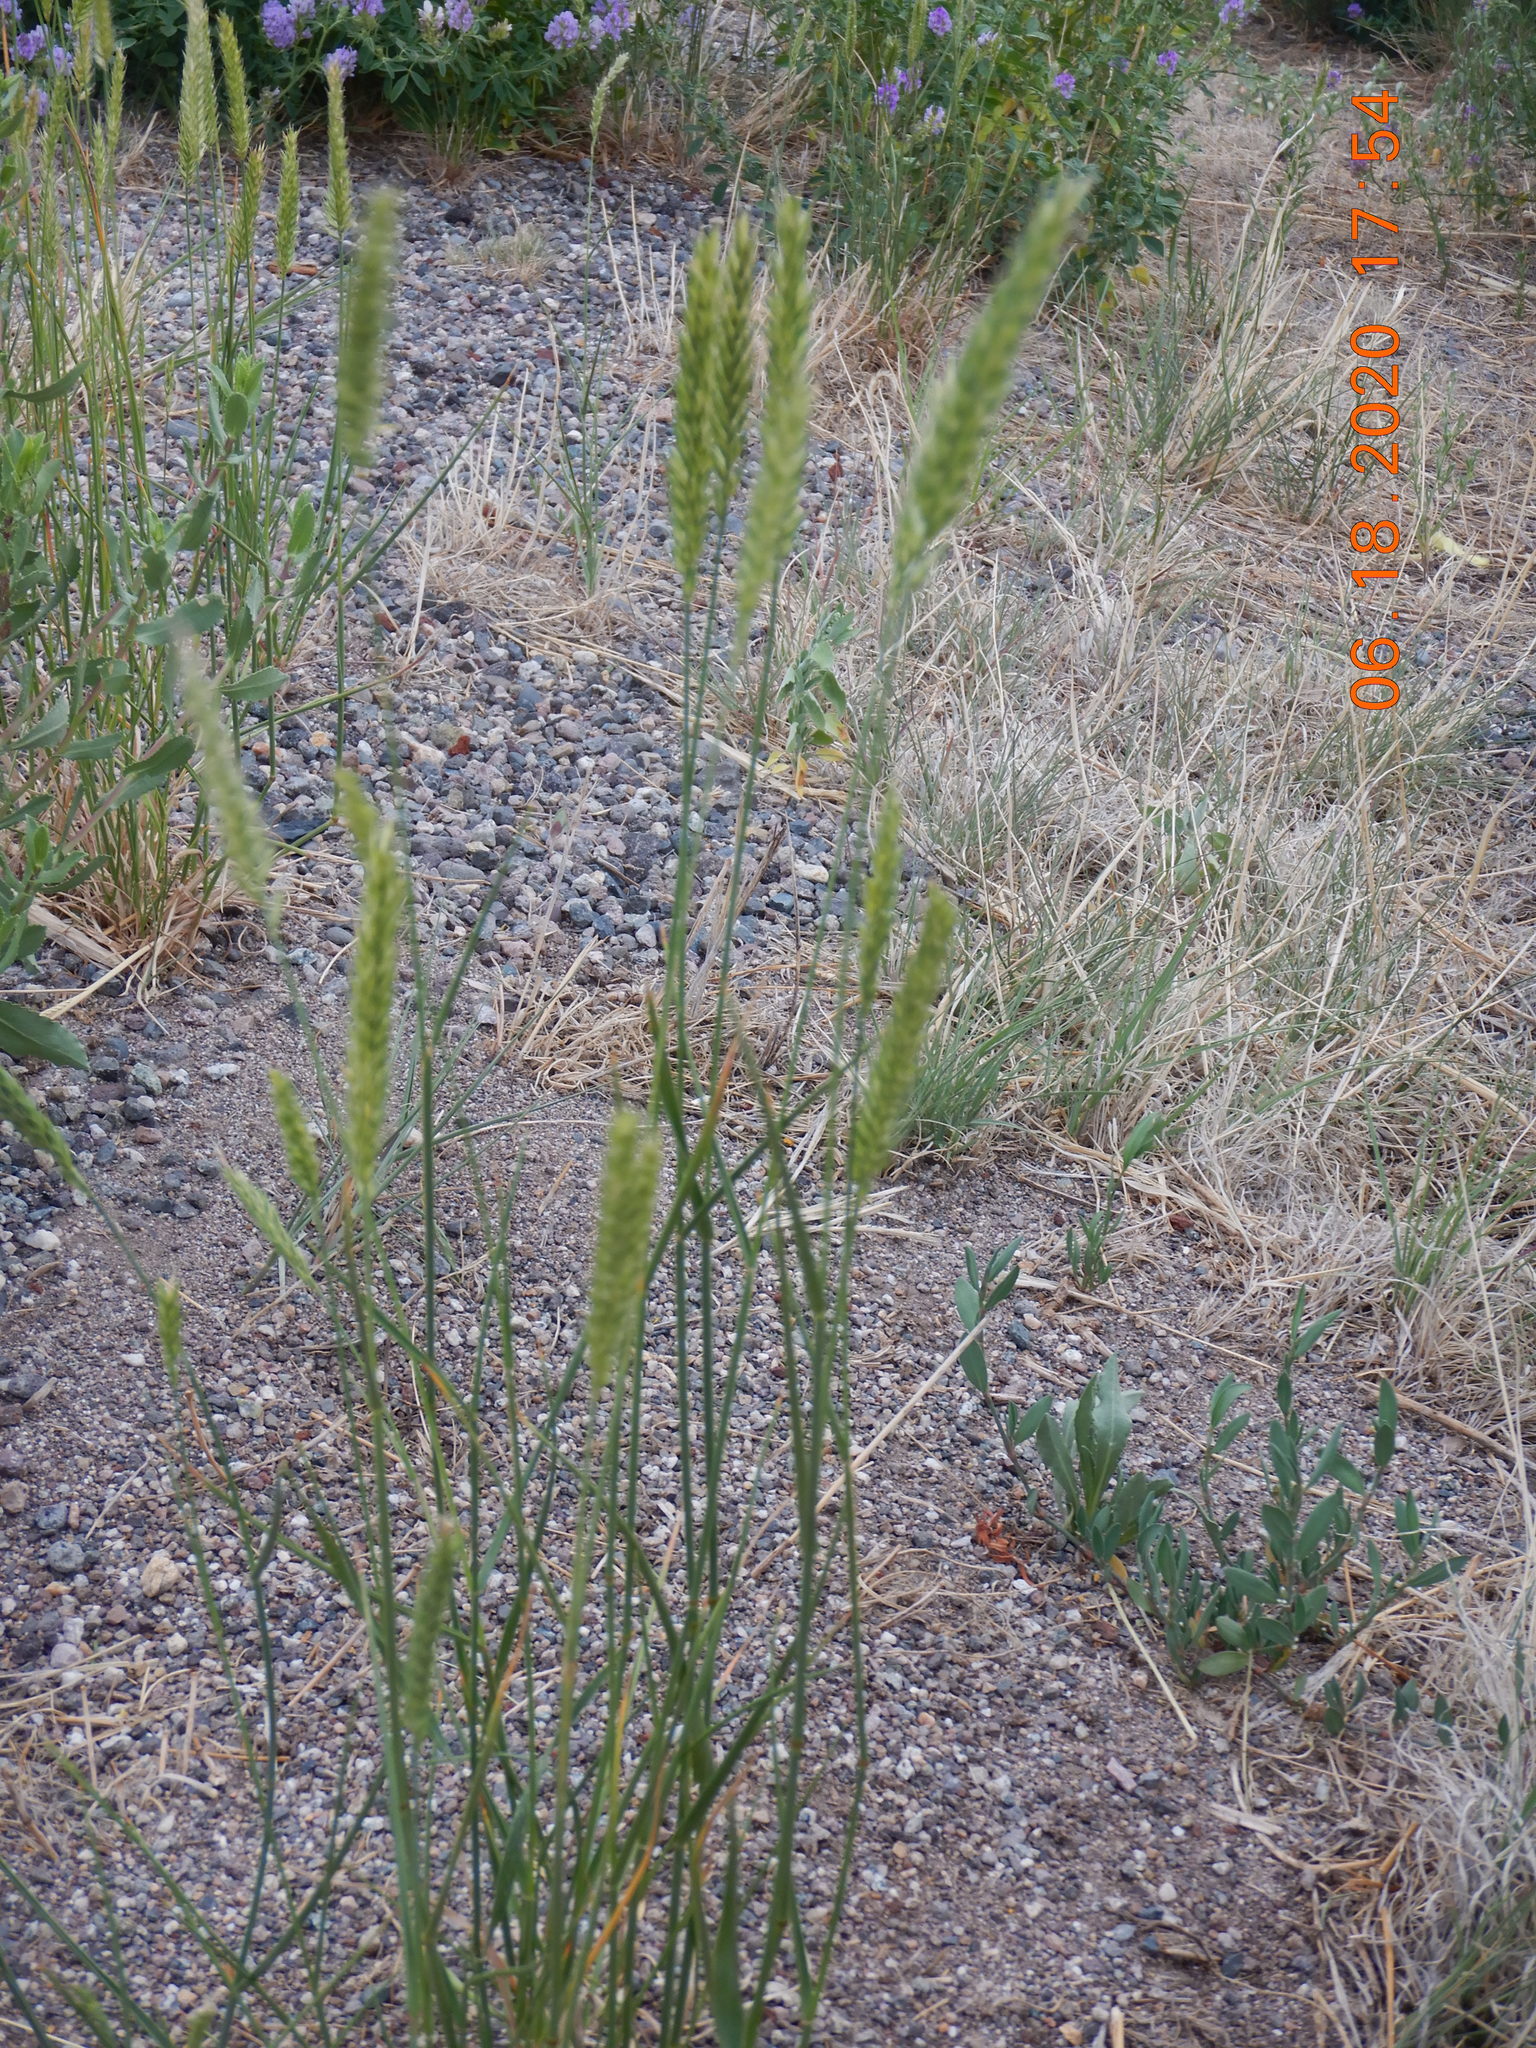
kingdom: Plantae
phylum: Tracheophyta
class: Liliopsida
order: Poales
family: Poaceae
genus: Agropyron
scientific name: Agropyron cristatum
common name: Crested wheatgrass
